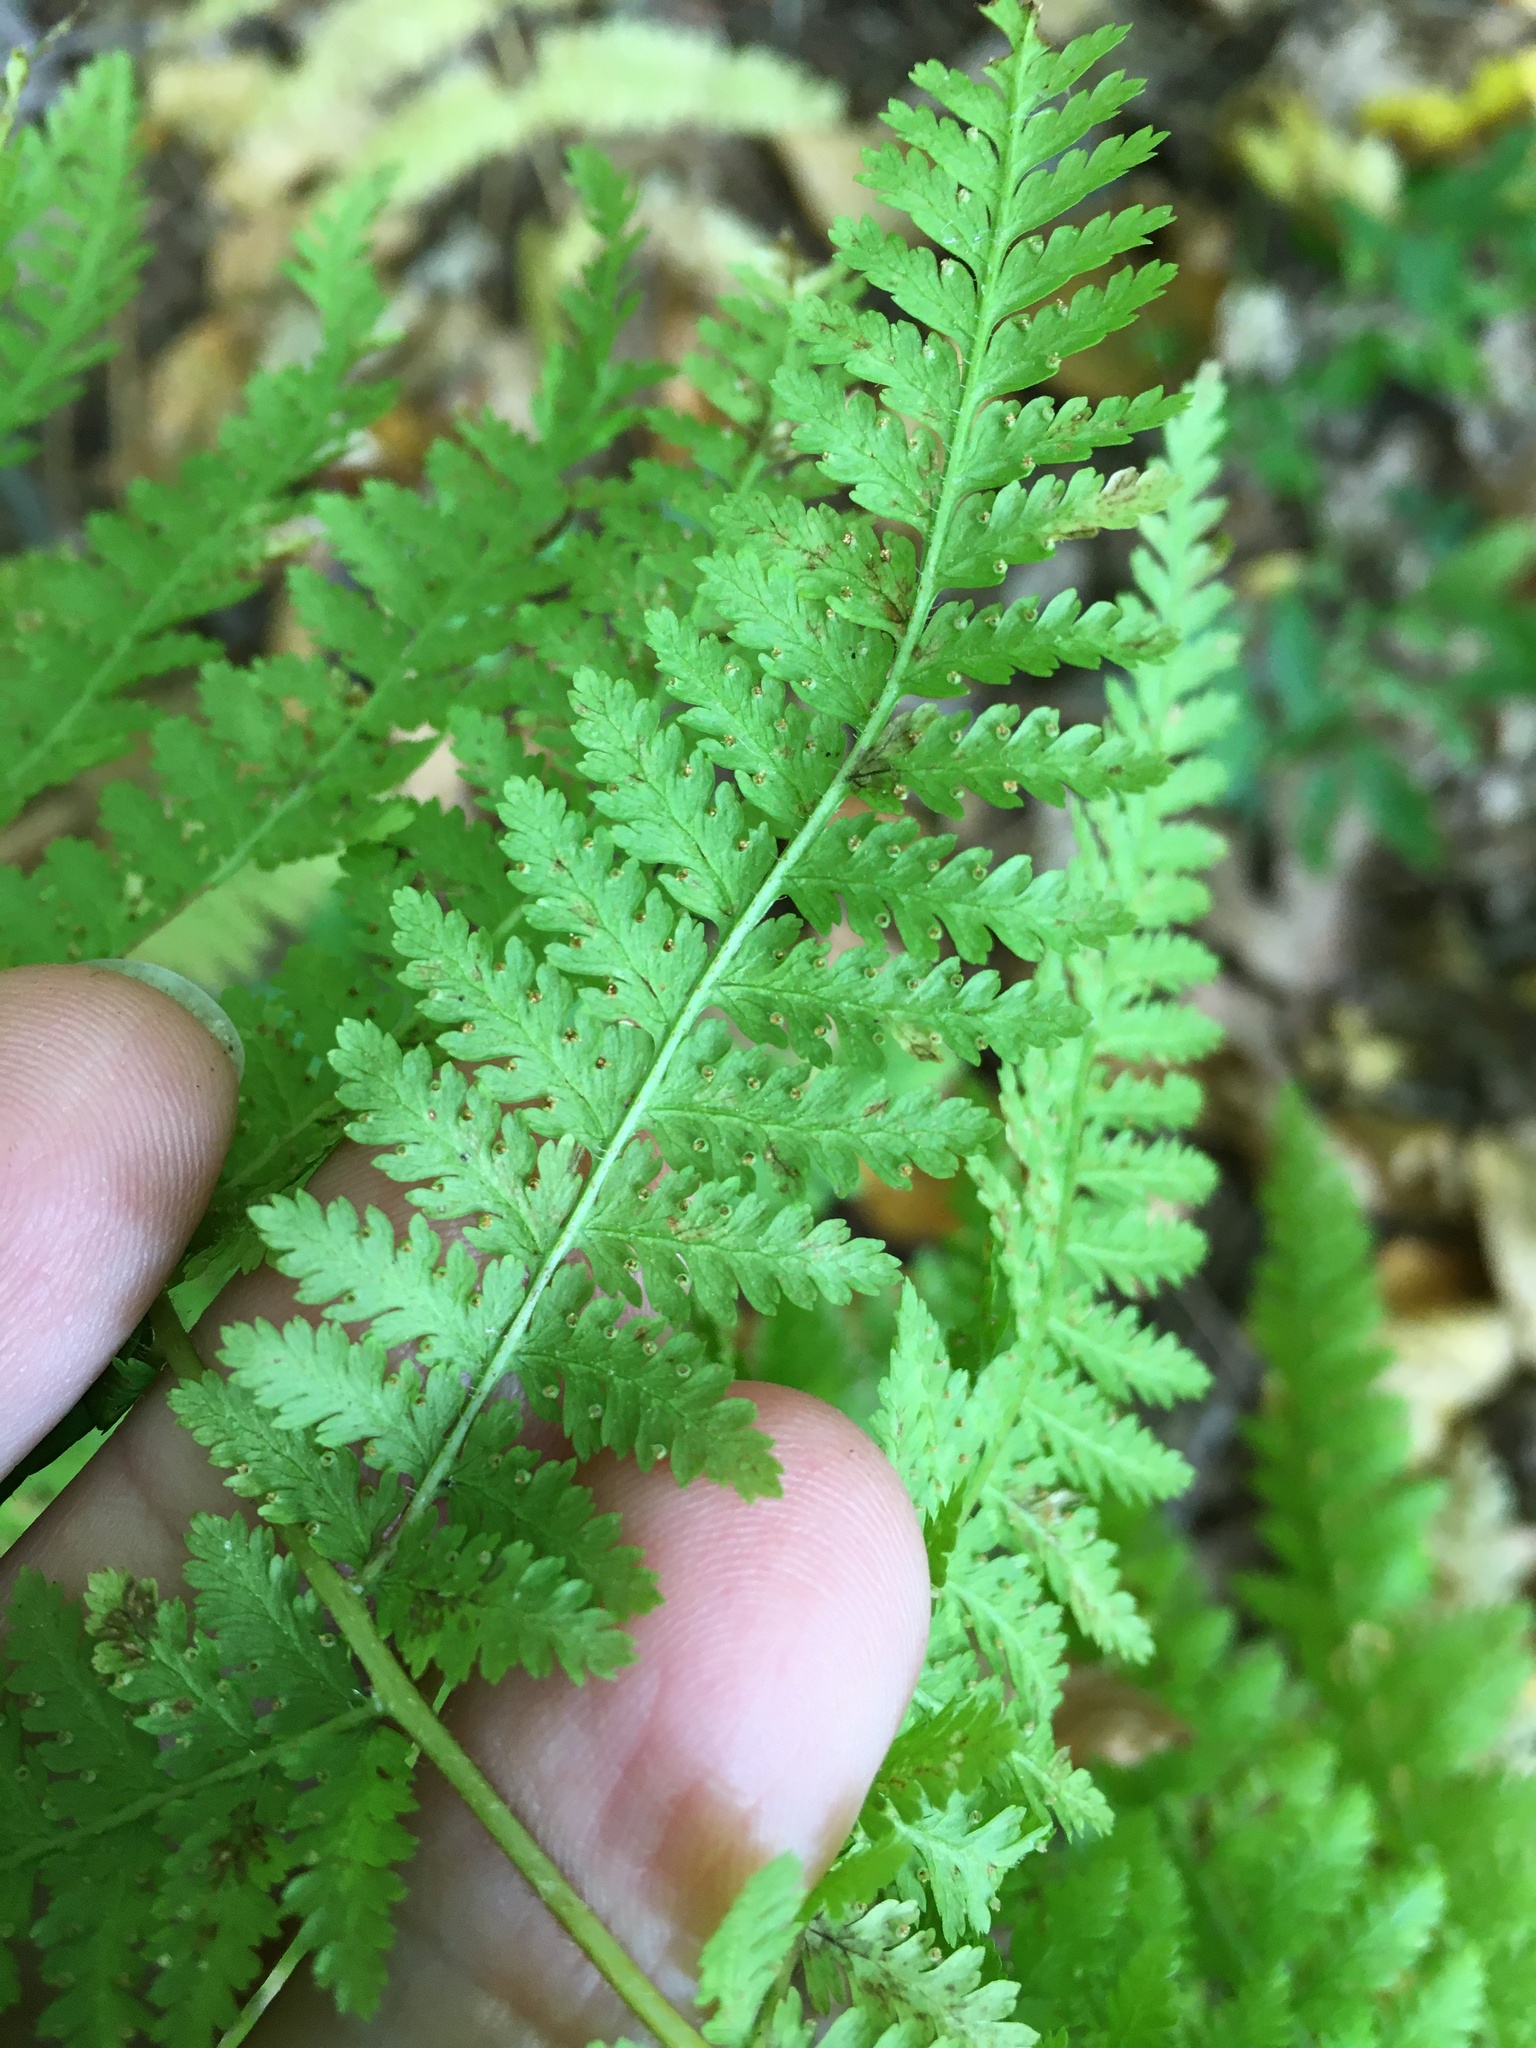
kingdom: Plantae
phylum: Tracheophyta
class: Polypodiopsida
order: Polypodiales
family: Dennstaedtiaceae
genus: Sitobolium
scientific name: Sitobolium punctilobum
